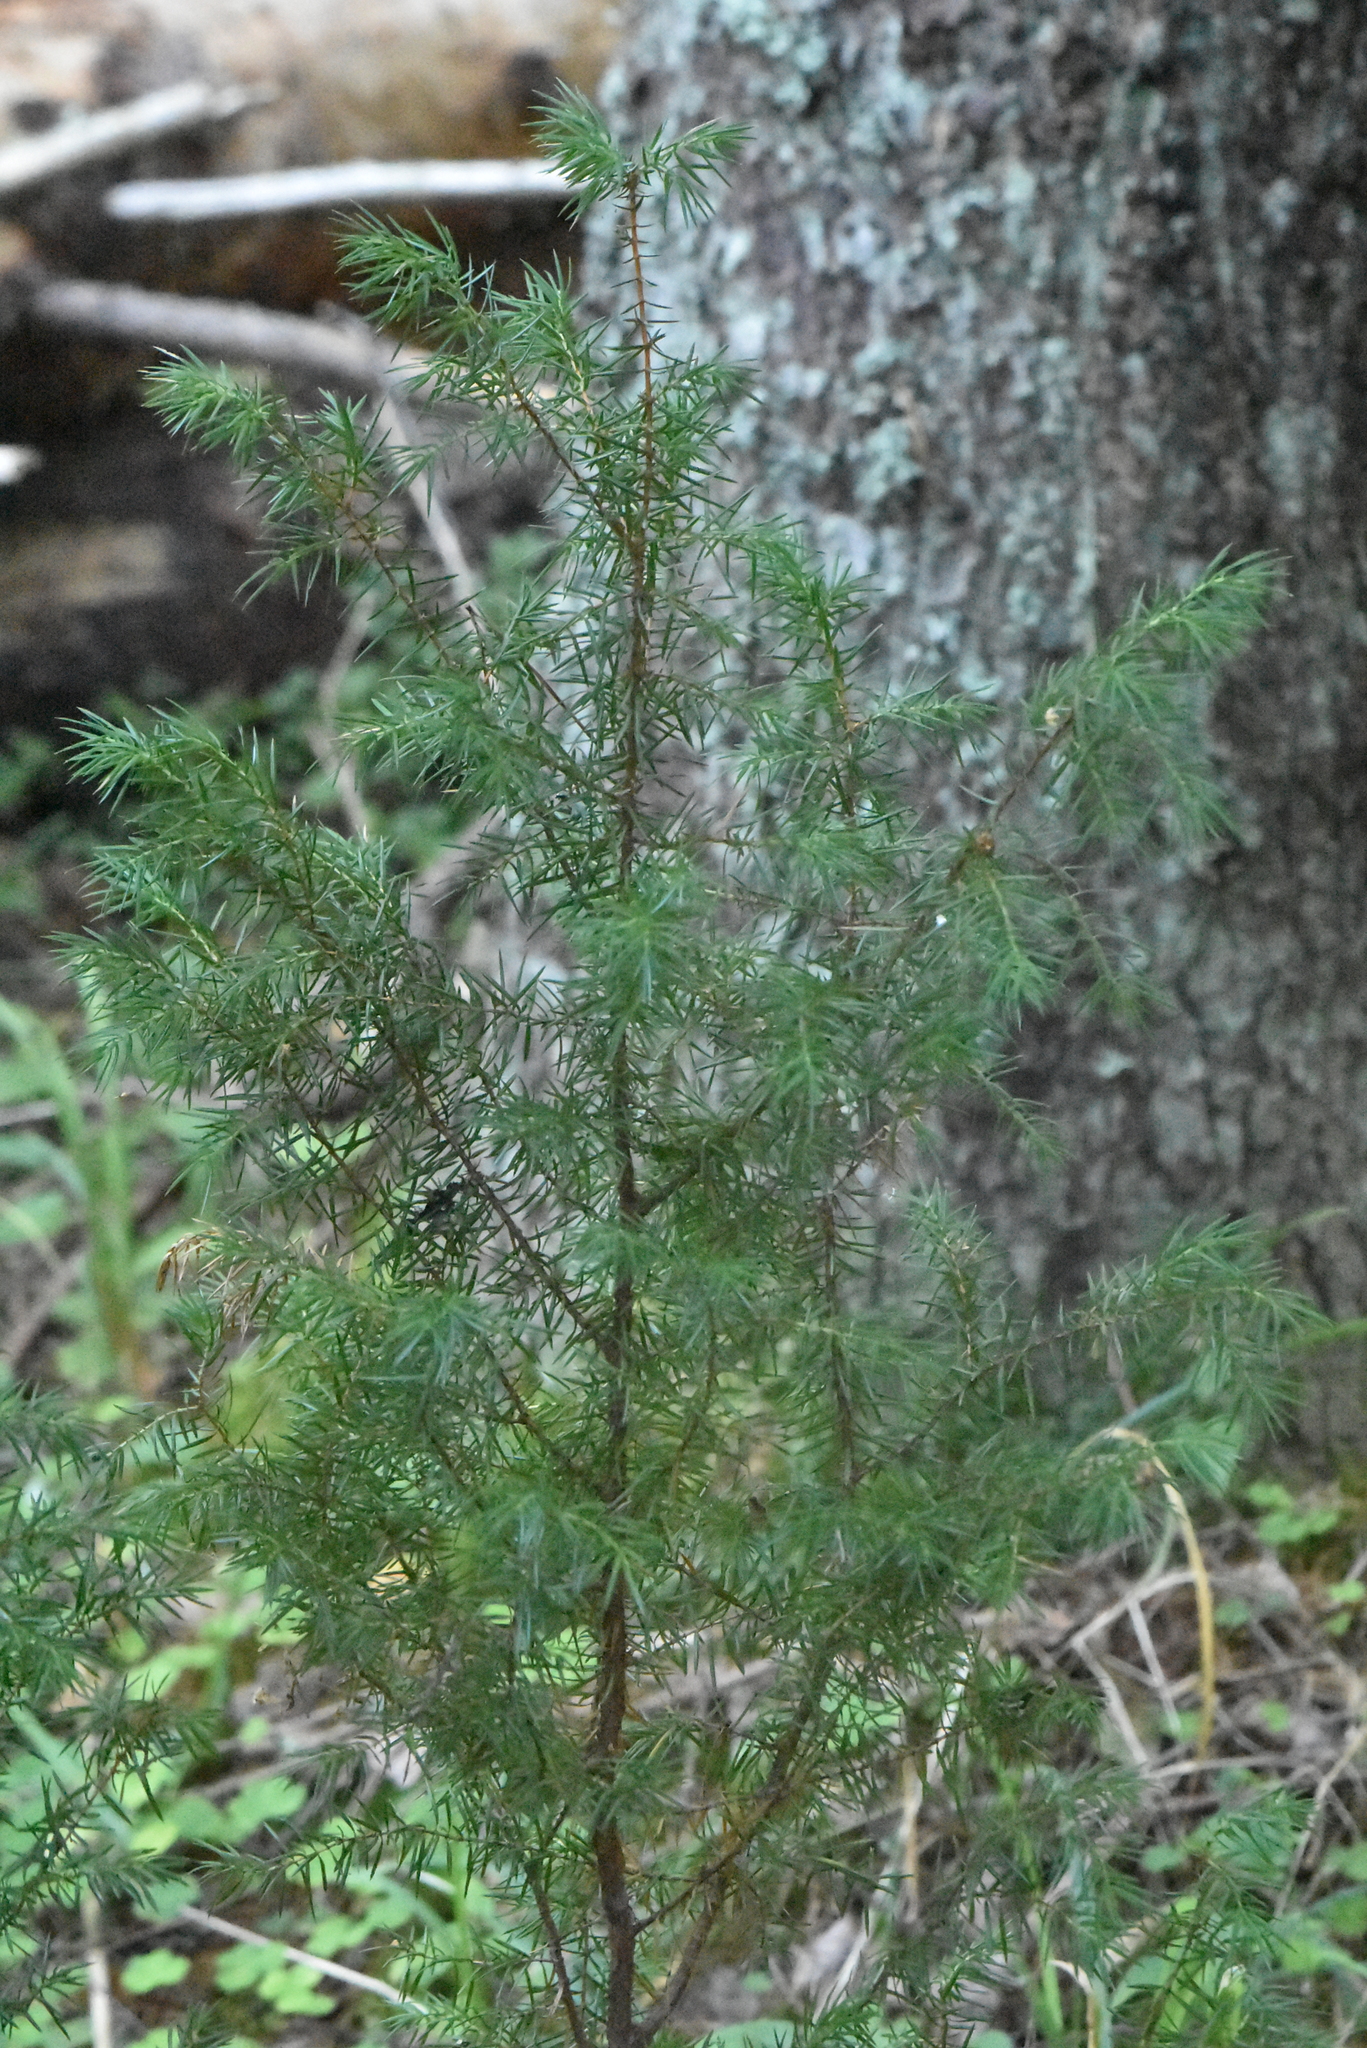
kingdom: Plantae
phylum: Tracheophyta
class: Pinopsida
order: Pinales
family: Cupressaceae
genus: Juniperus
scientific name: Juniperus communis
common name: Common juniper
